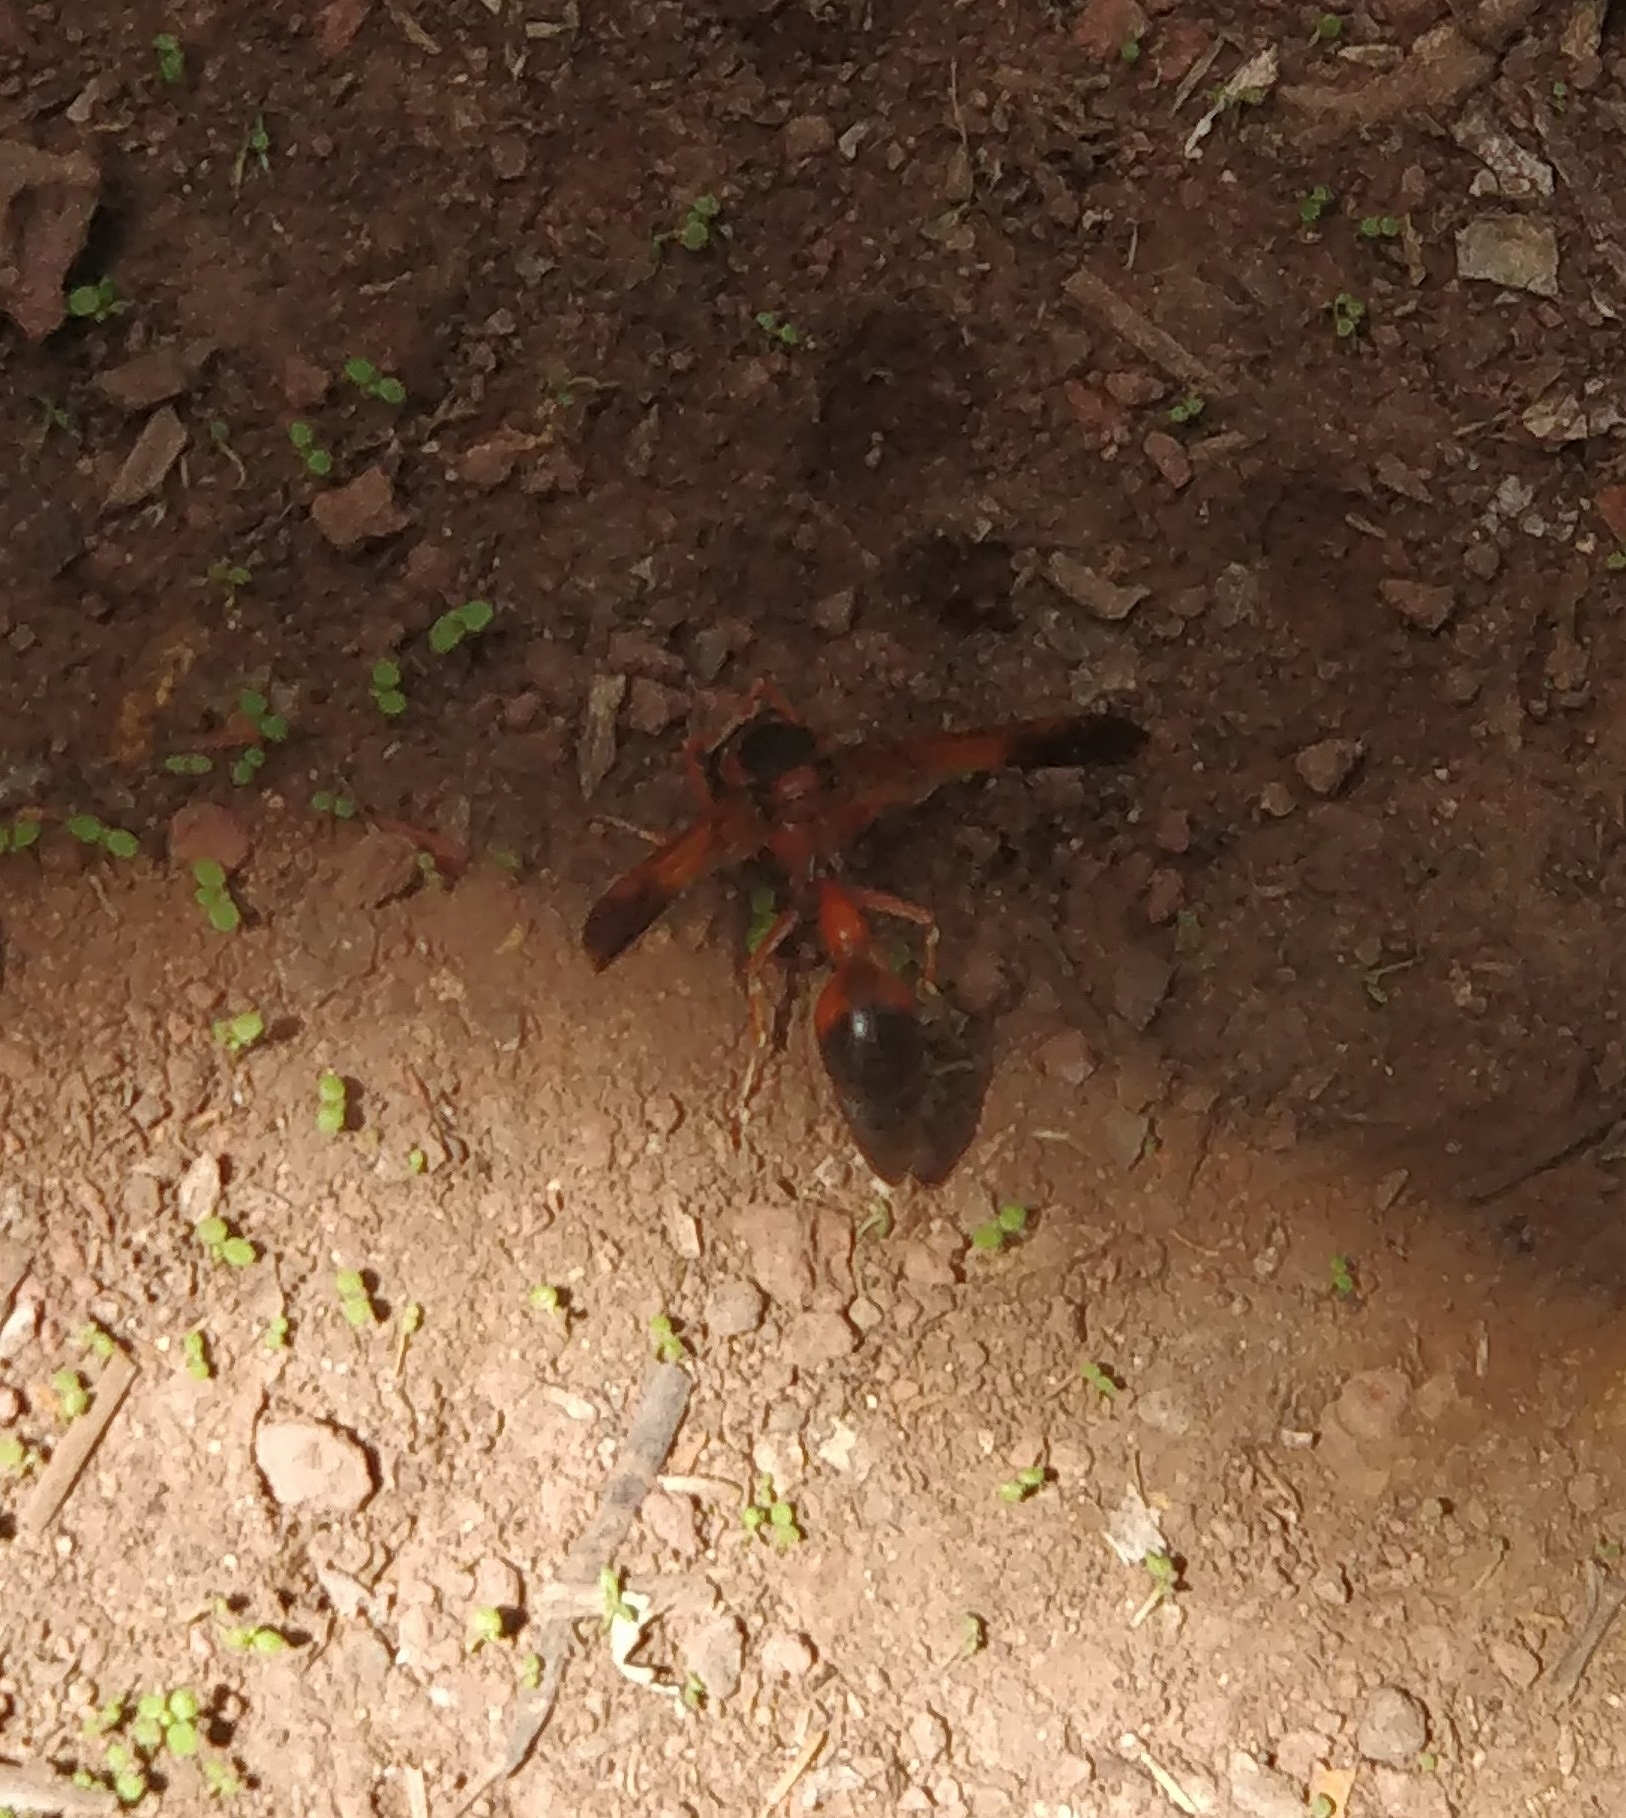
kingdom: Animalia
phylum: Arthropoda
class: Insecta
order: Hymenoptera
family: Eumenidae
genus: Delta
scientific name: Delta dimidiatipenne
